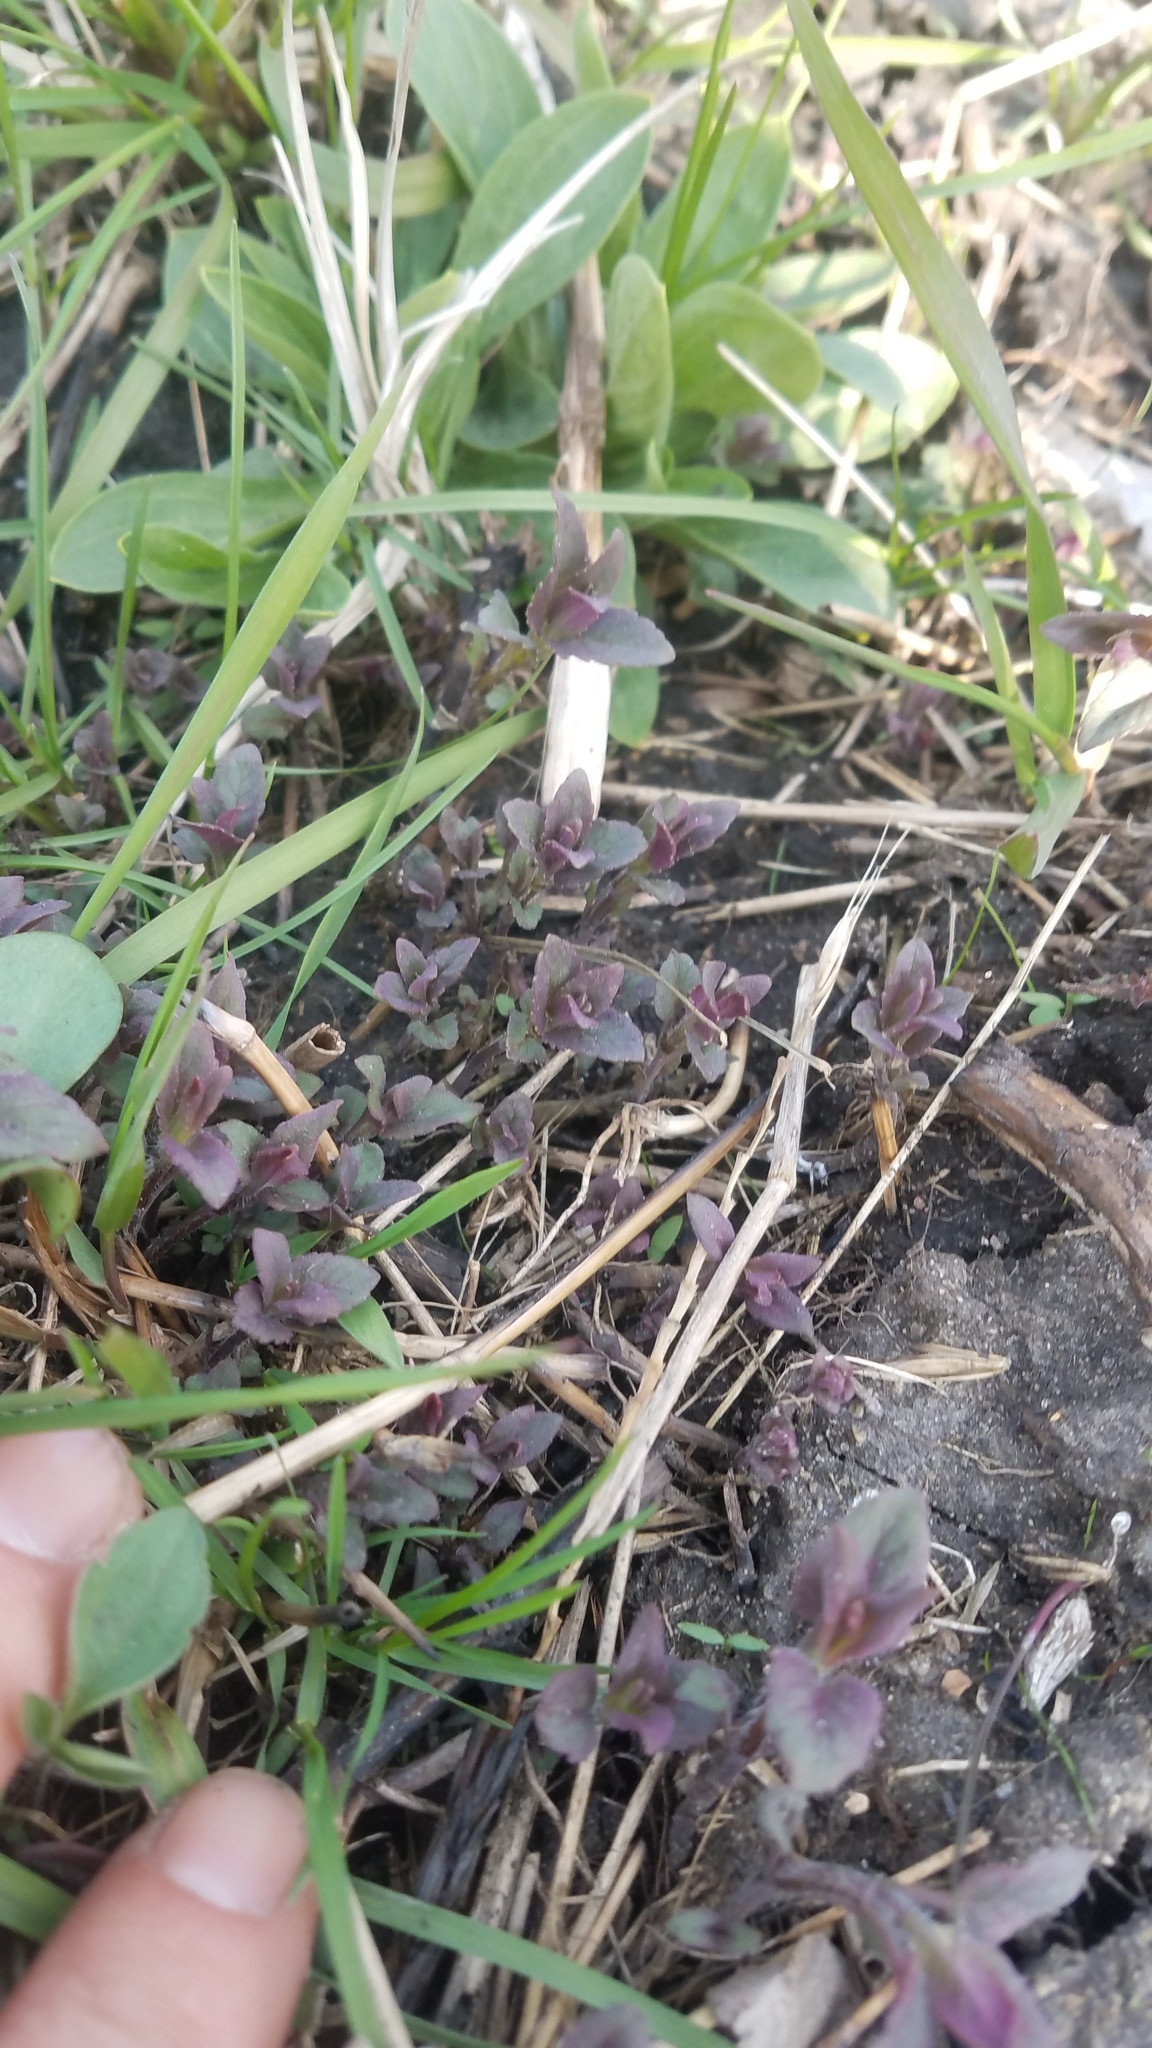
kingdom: Plantae
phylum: Tracheophyta
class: Magnoliopsida
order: Lamiales
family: Lamiaceae
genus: Monarda
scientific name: Monarda fistulosa
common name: Purple beebalm
